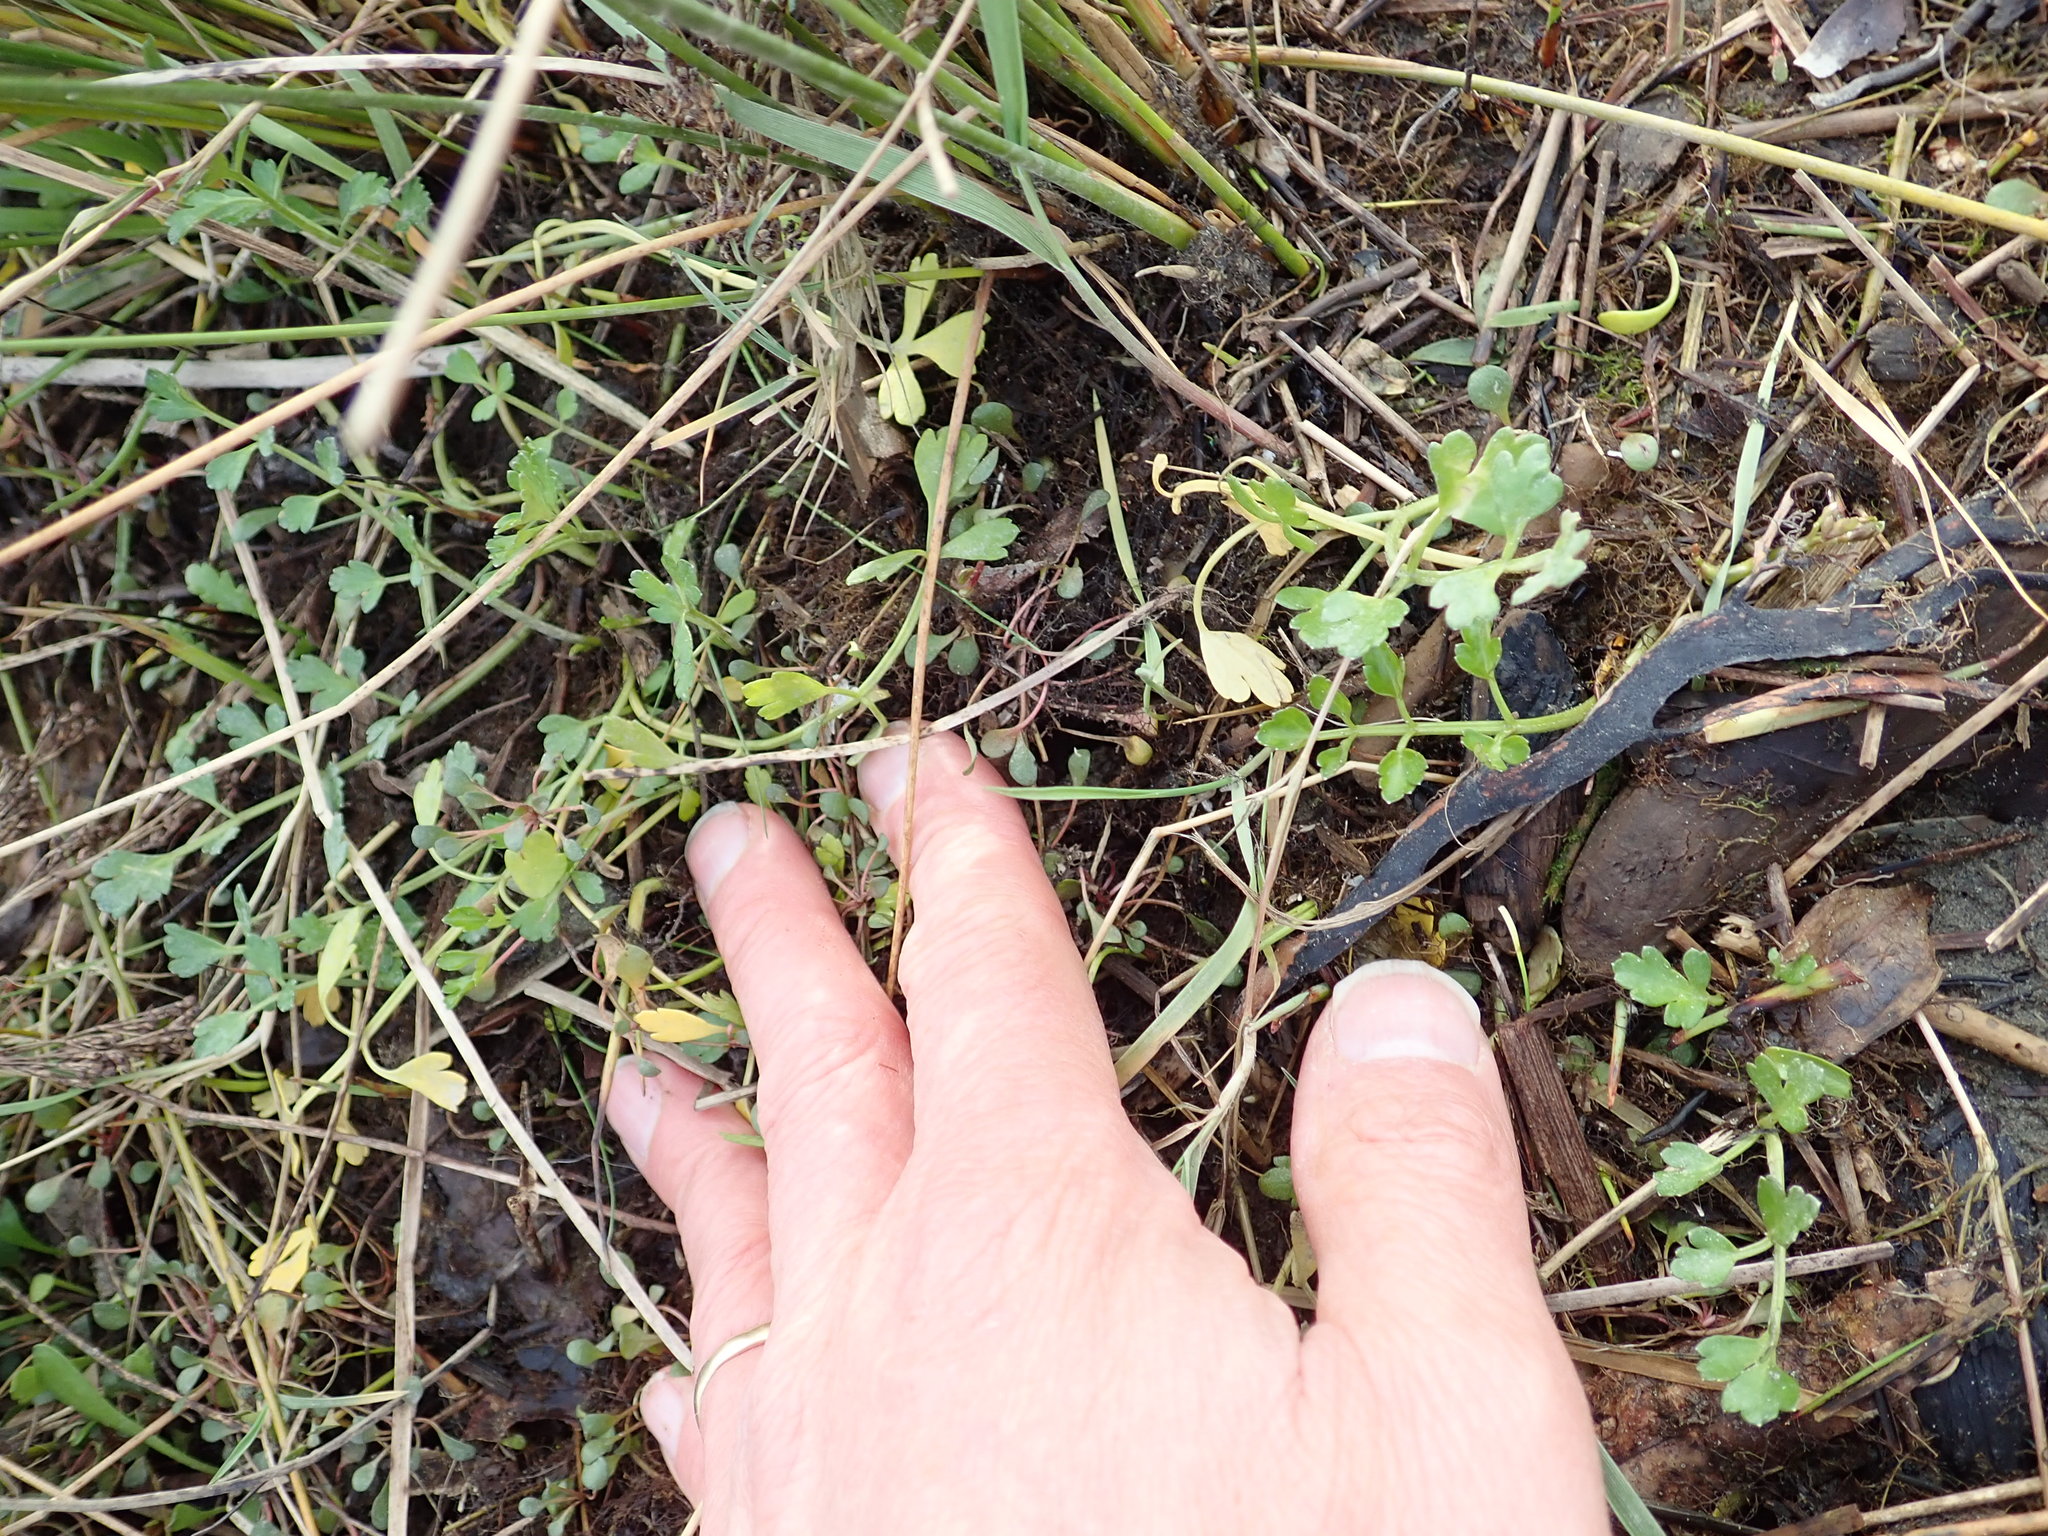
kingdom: Plantae
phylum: Tracheophyta
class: Magnoliopsida
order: Apiales
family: Apiaceae
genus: Apium
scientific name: Apium prostratum
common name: Prostrate marshwort
